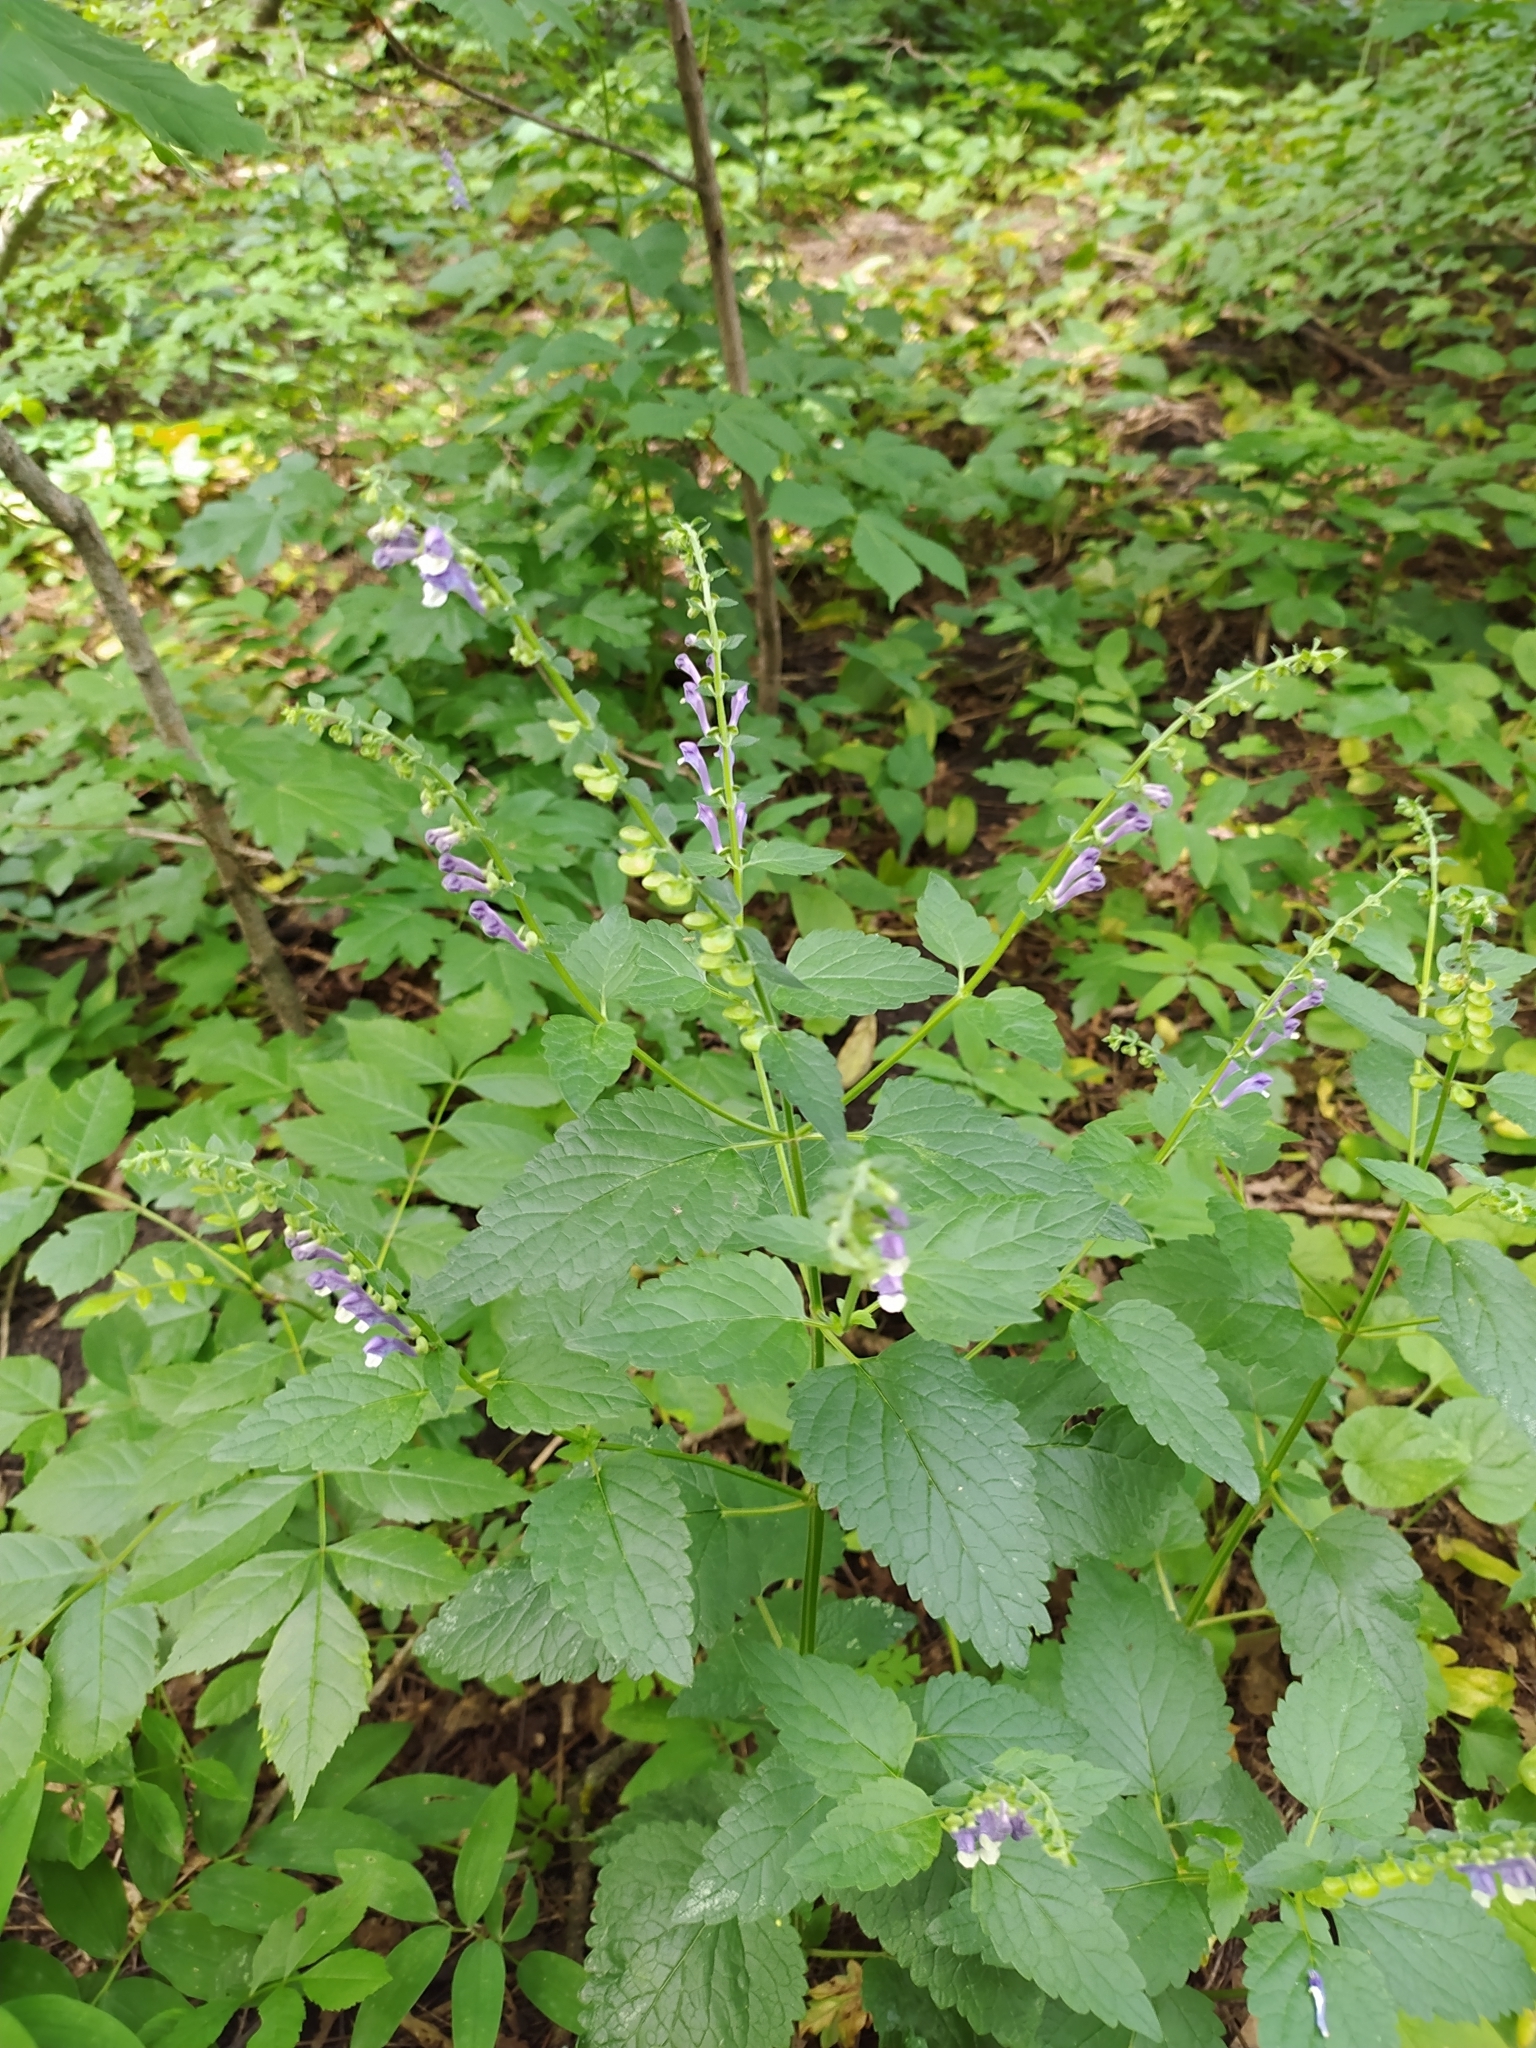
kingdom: Plantae
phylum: Tracheophyta
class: Magnoliopsida
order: Lamiales
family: Lamiaceae
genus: Scutellaria
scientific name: Scutellaria altissima
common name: Somerset skullcap
